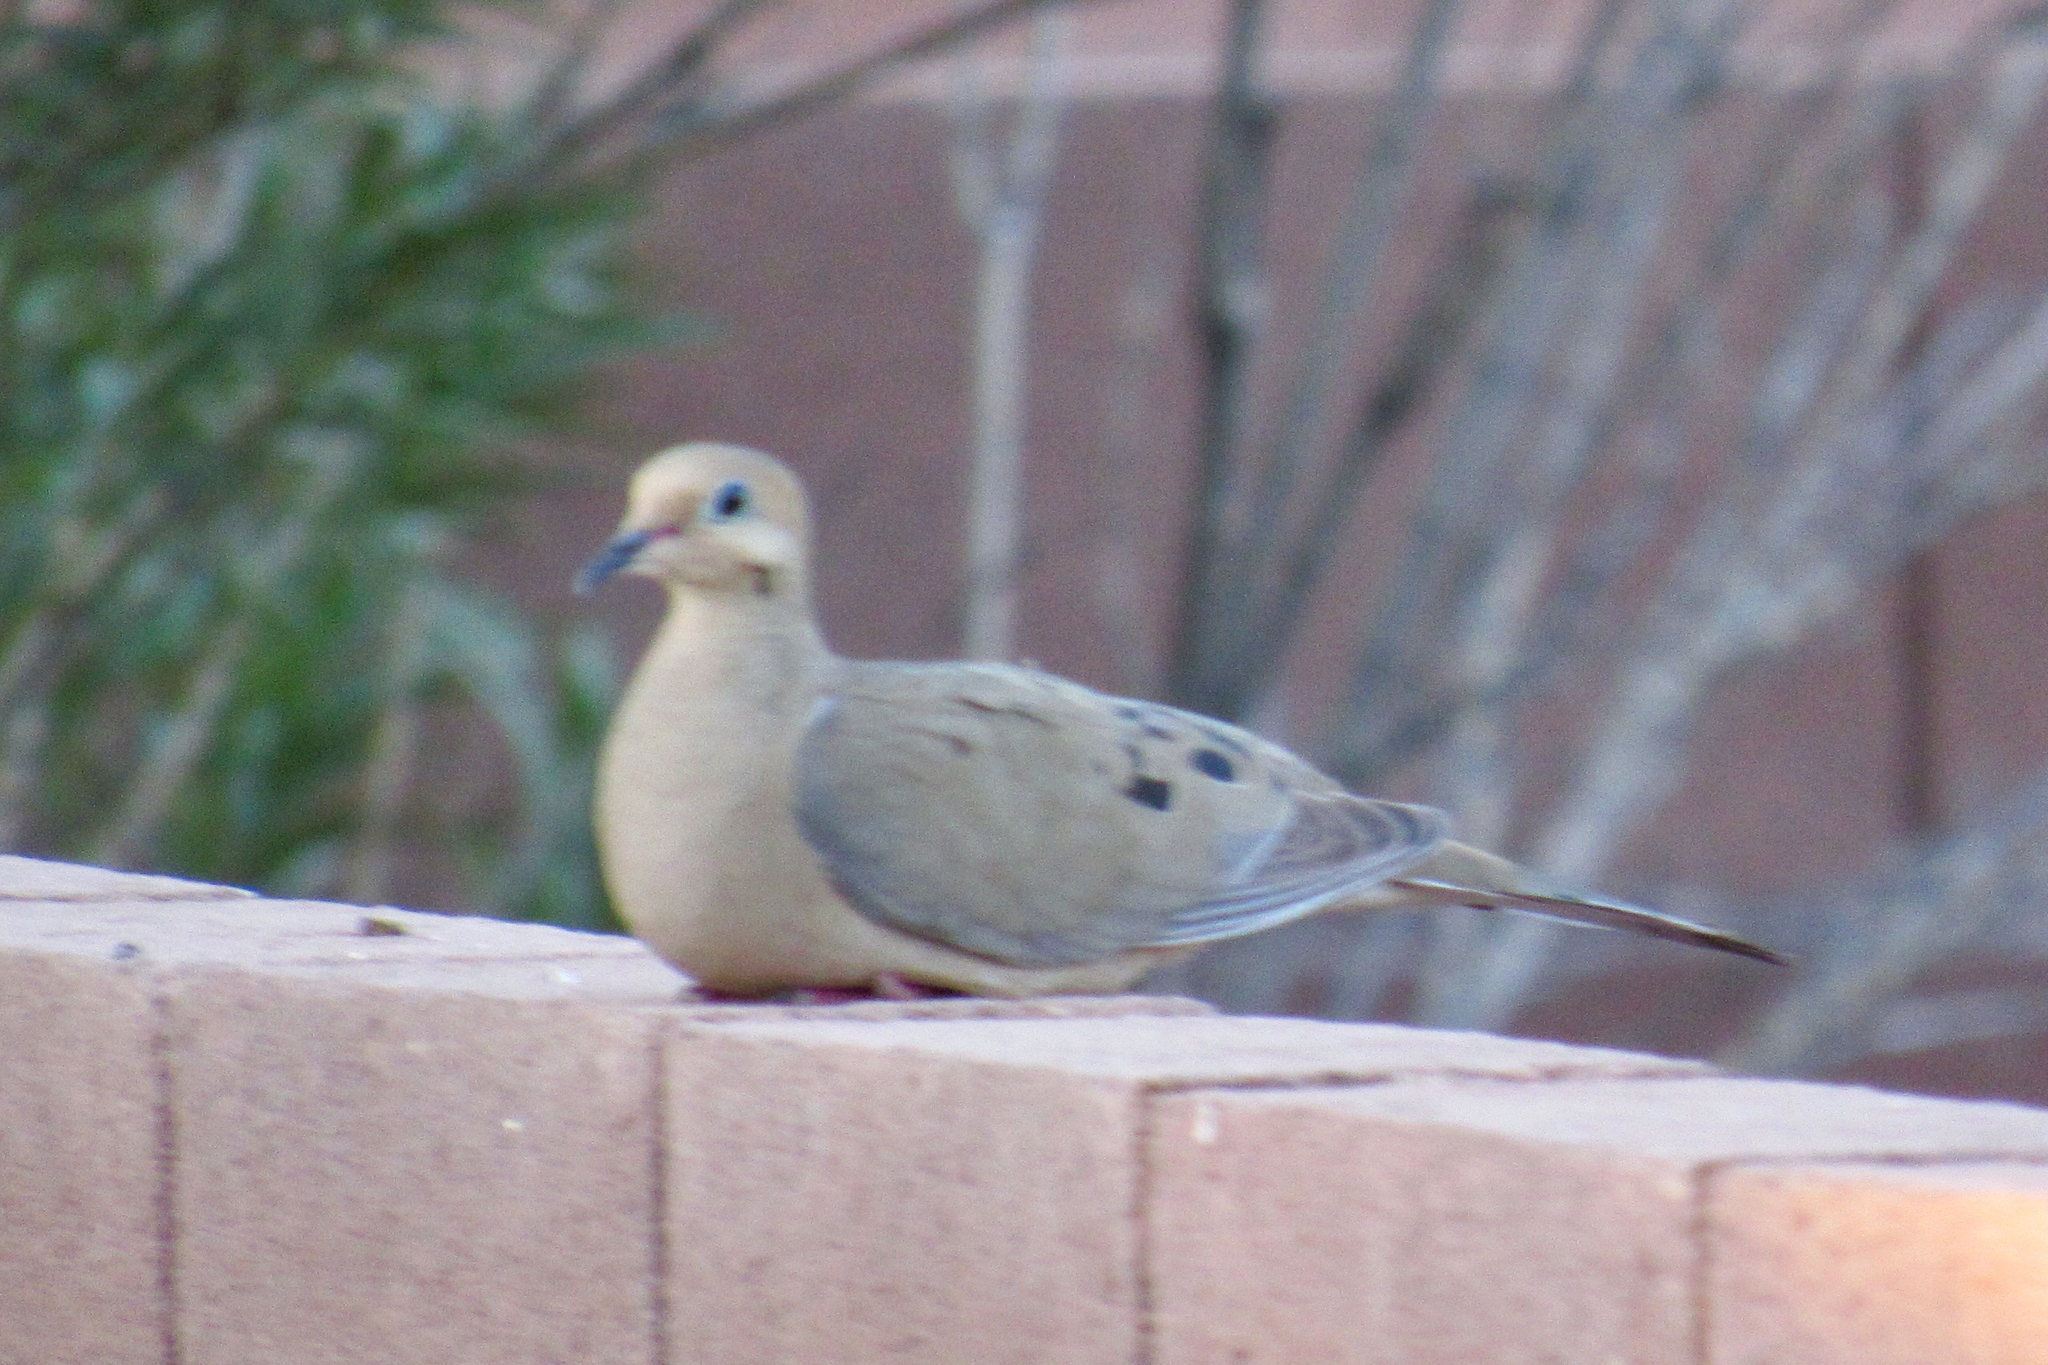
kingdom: Animalia
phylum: Chordata
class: Aves
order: Columbiformes
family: Columbidae
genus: Zenaida
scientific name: Zenaida macroura
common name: Mourning dove
